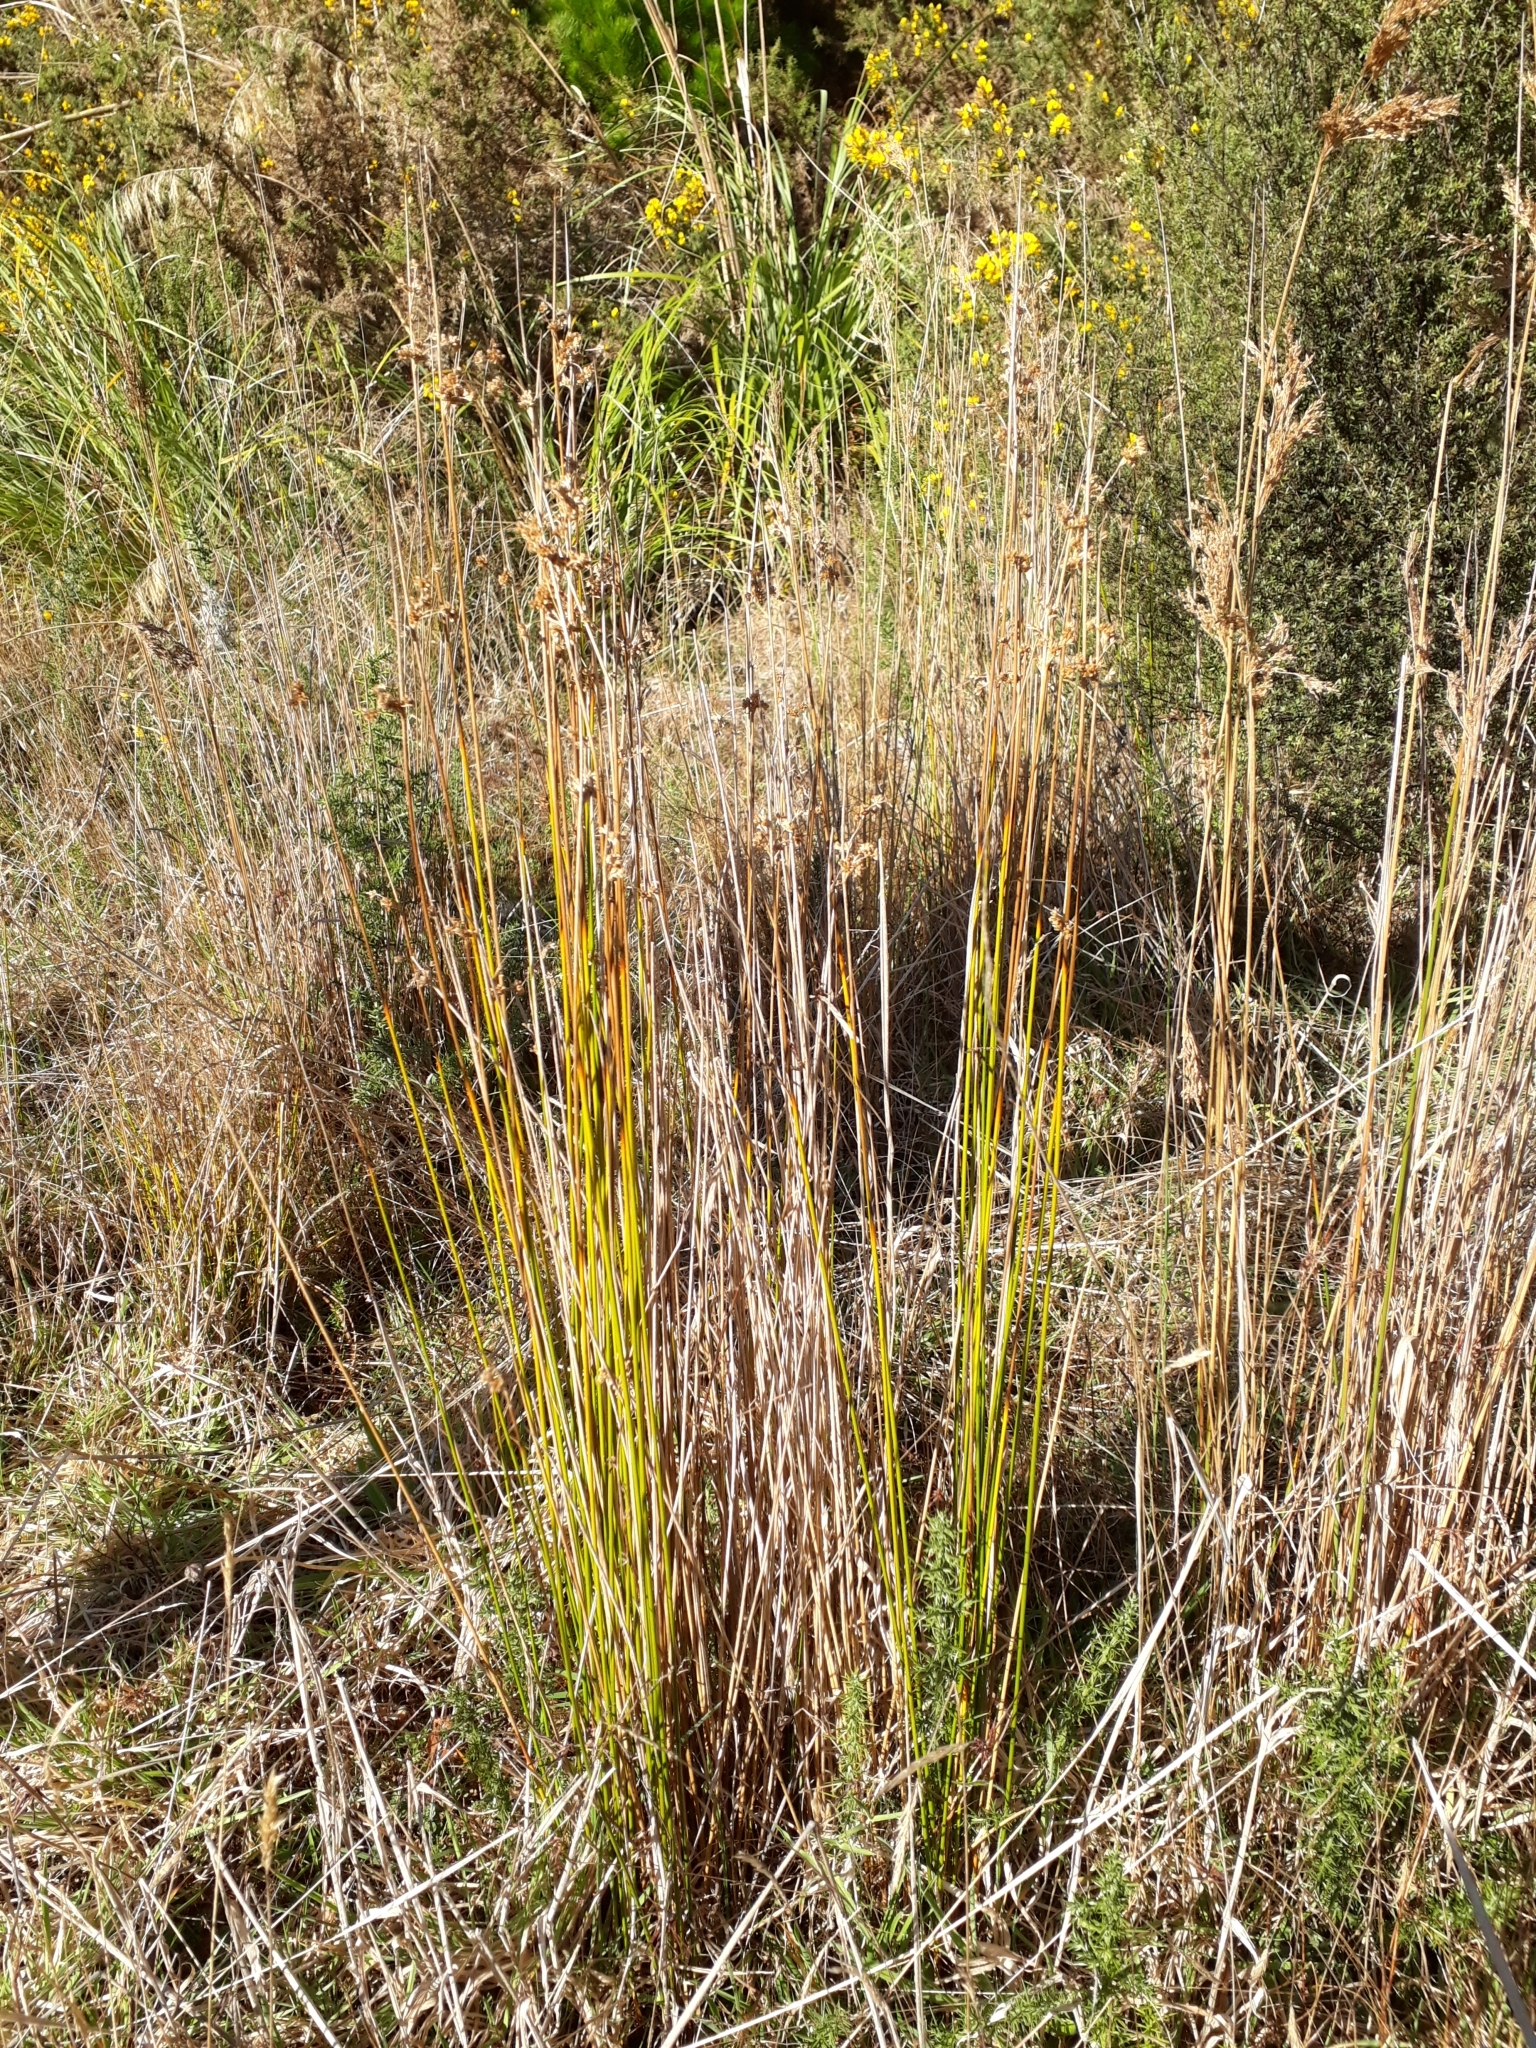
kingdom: Plantae
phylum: Tracheophyta
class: Liliopsida
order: Poales
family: Juncaceae
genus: Juncus
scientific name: Juncus edgariae
